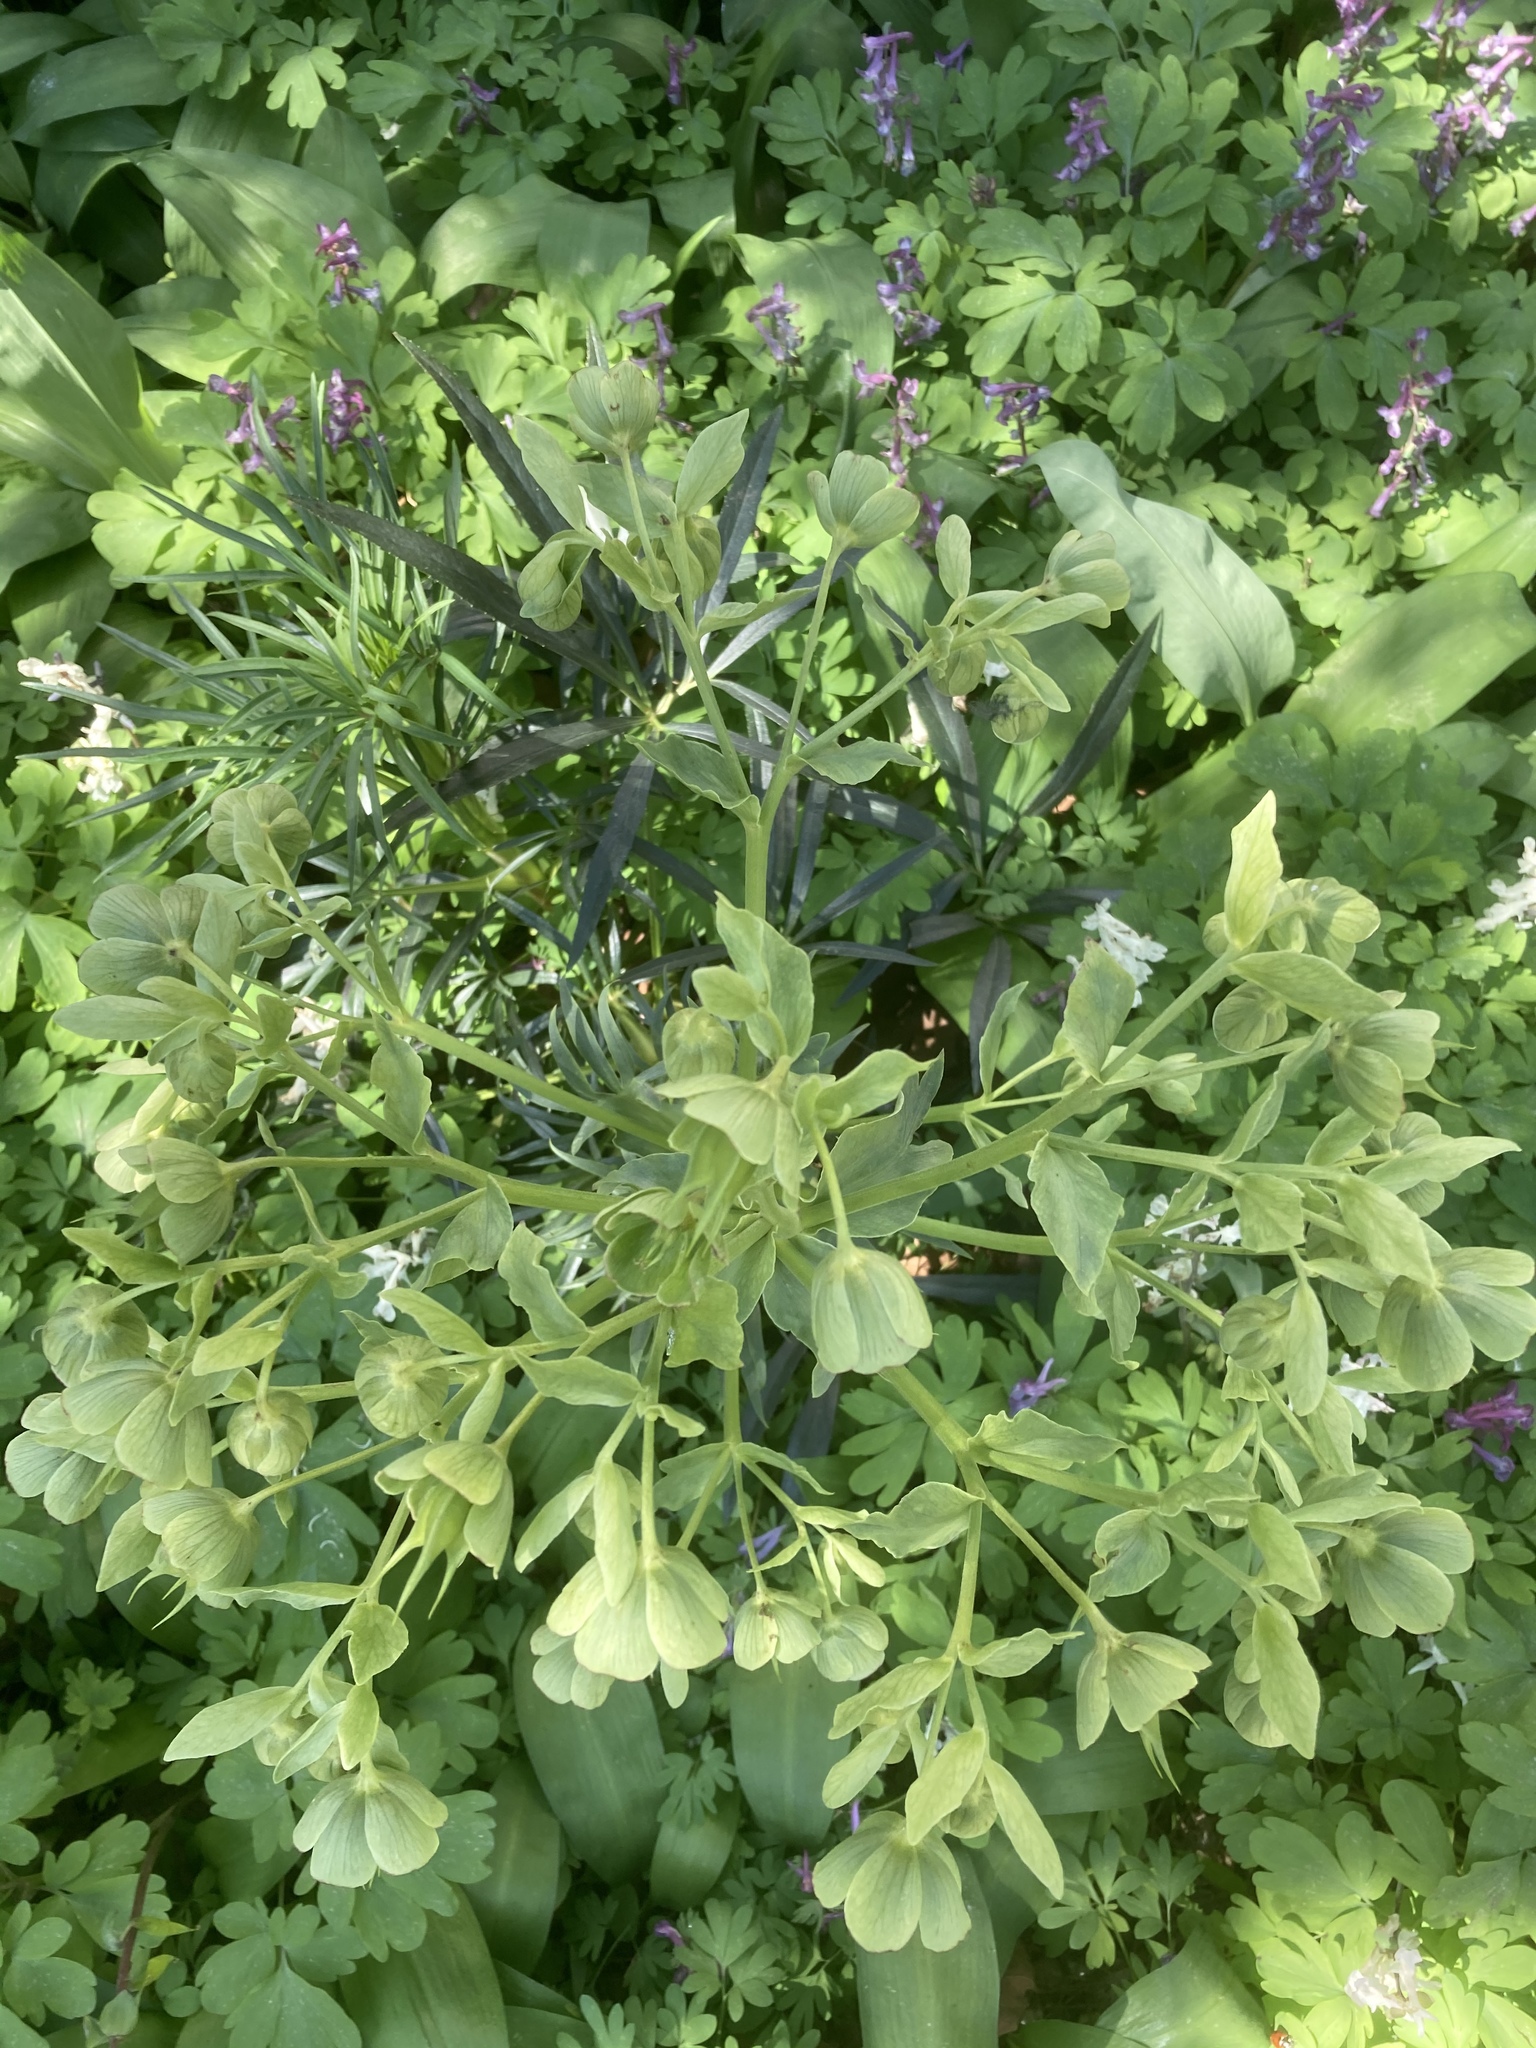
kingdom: Plantae
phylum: Tracheophyta
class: Magnoliopsida
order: Ranunculales
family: Ranunculaceae
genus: Helleborus
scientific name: Helleborus foetidus
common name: Stinking hellebore
